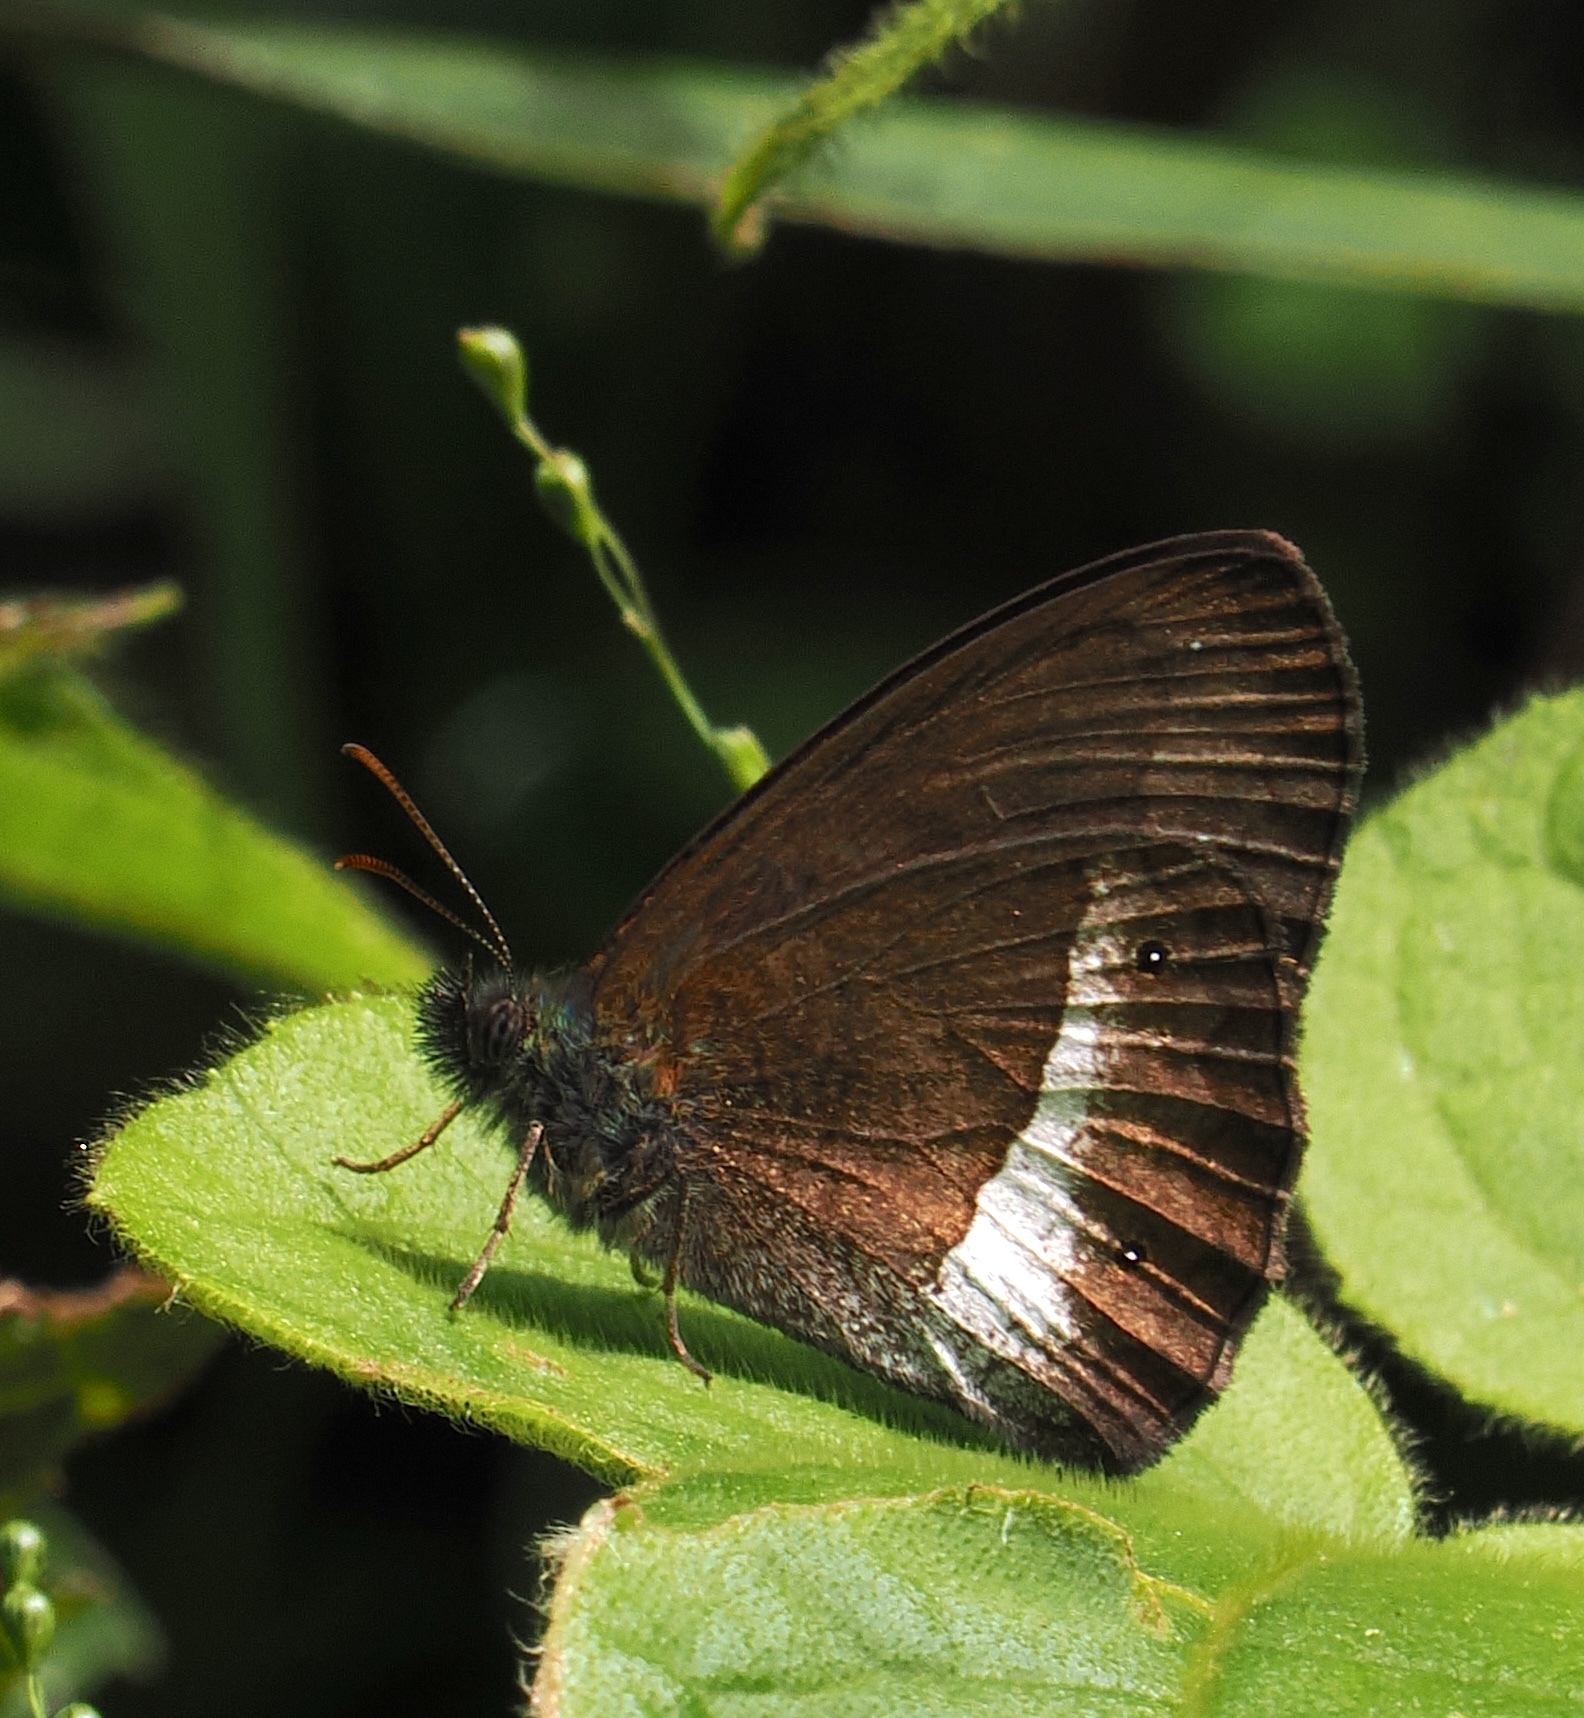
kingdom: Animalia
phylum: Arthropoda
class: Insecta
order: Lepidoptera
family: Nymphalidae
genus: Forsterinaria
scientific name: Forsterinaria pronophila
